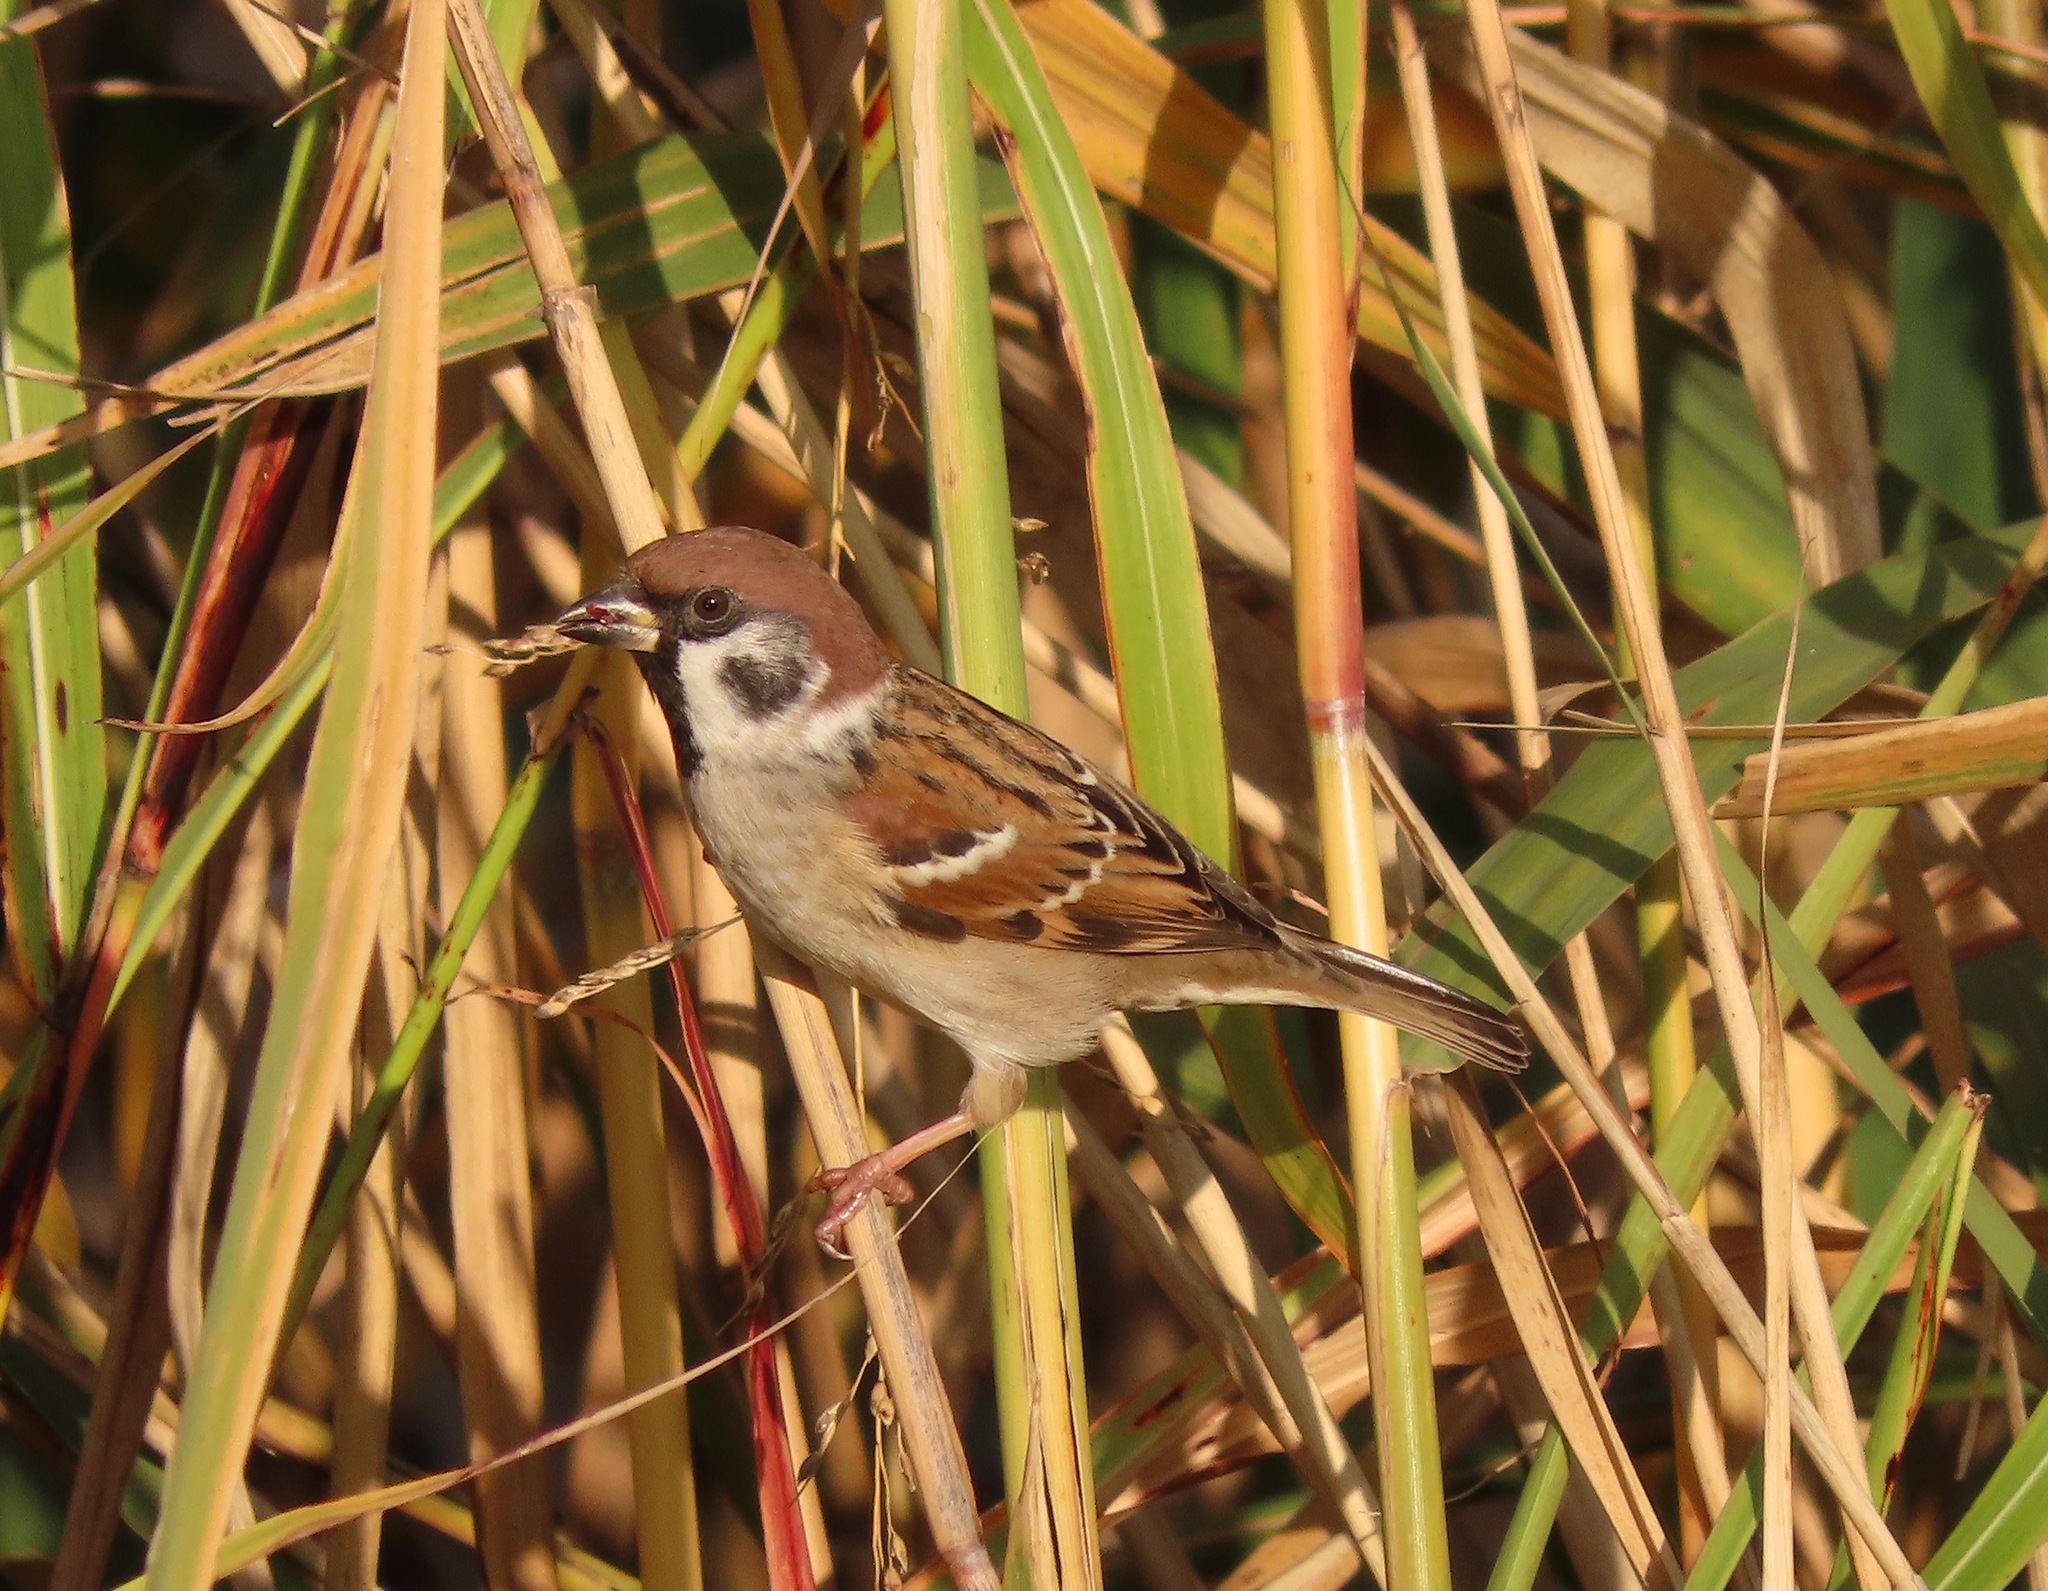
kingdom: Animalia
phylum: Chordata
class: Aves
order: Passeriformes
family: Passeridae
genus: Passer
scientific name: Passer montanus
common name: Eurasian tree sparrow
